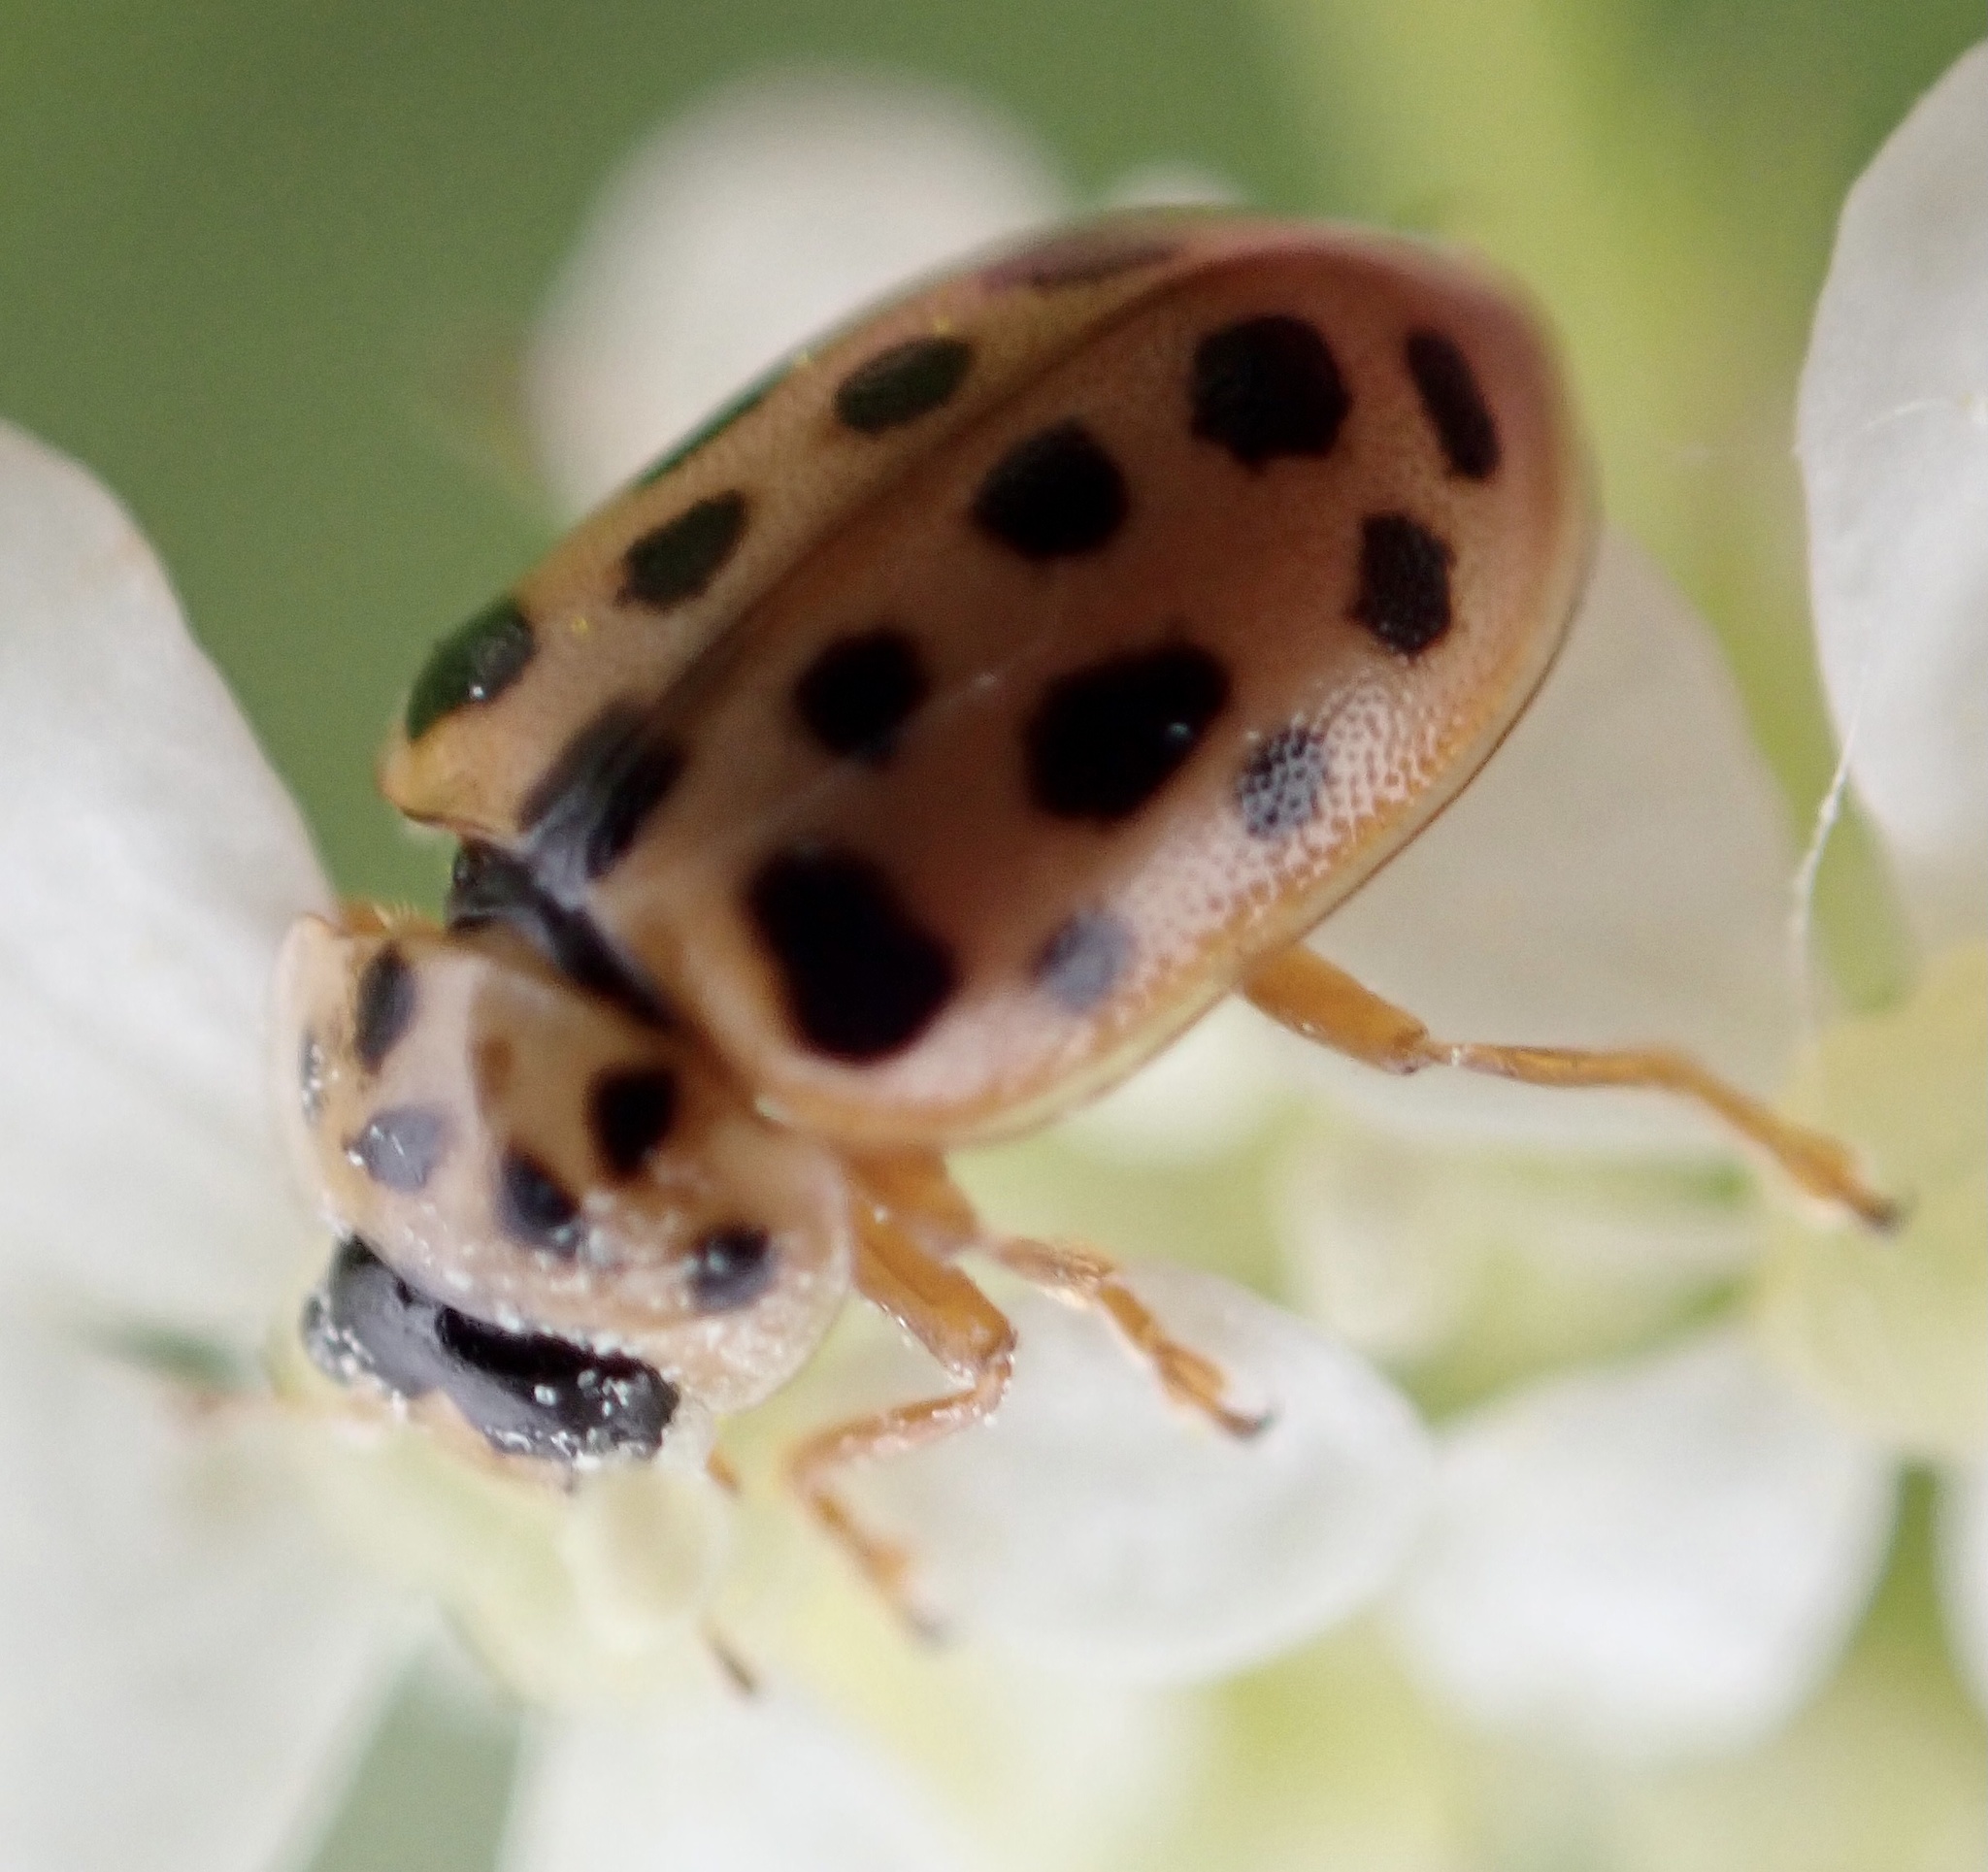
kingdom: Animalia
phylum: Arthropoda
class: Insecta
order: Coleoptera
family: Coccinellidae
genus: Anisosticta
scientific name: Anisosticta novemdecimpunctata
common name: Water ladybird
